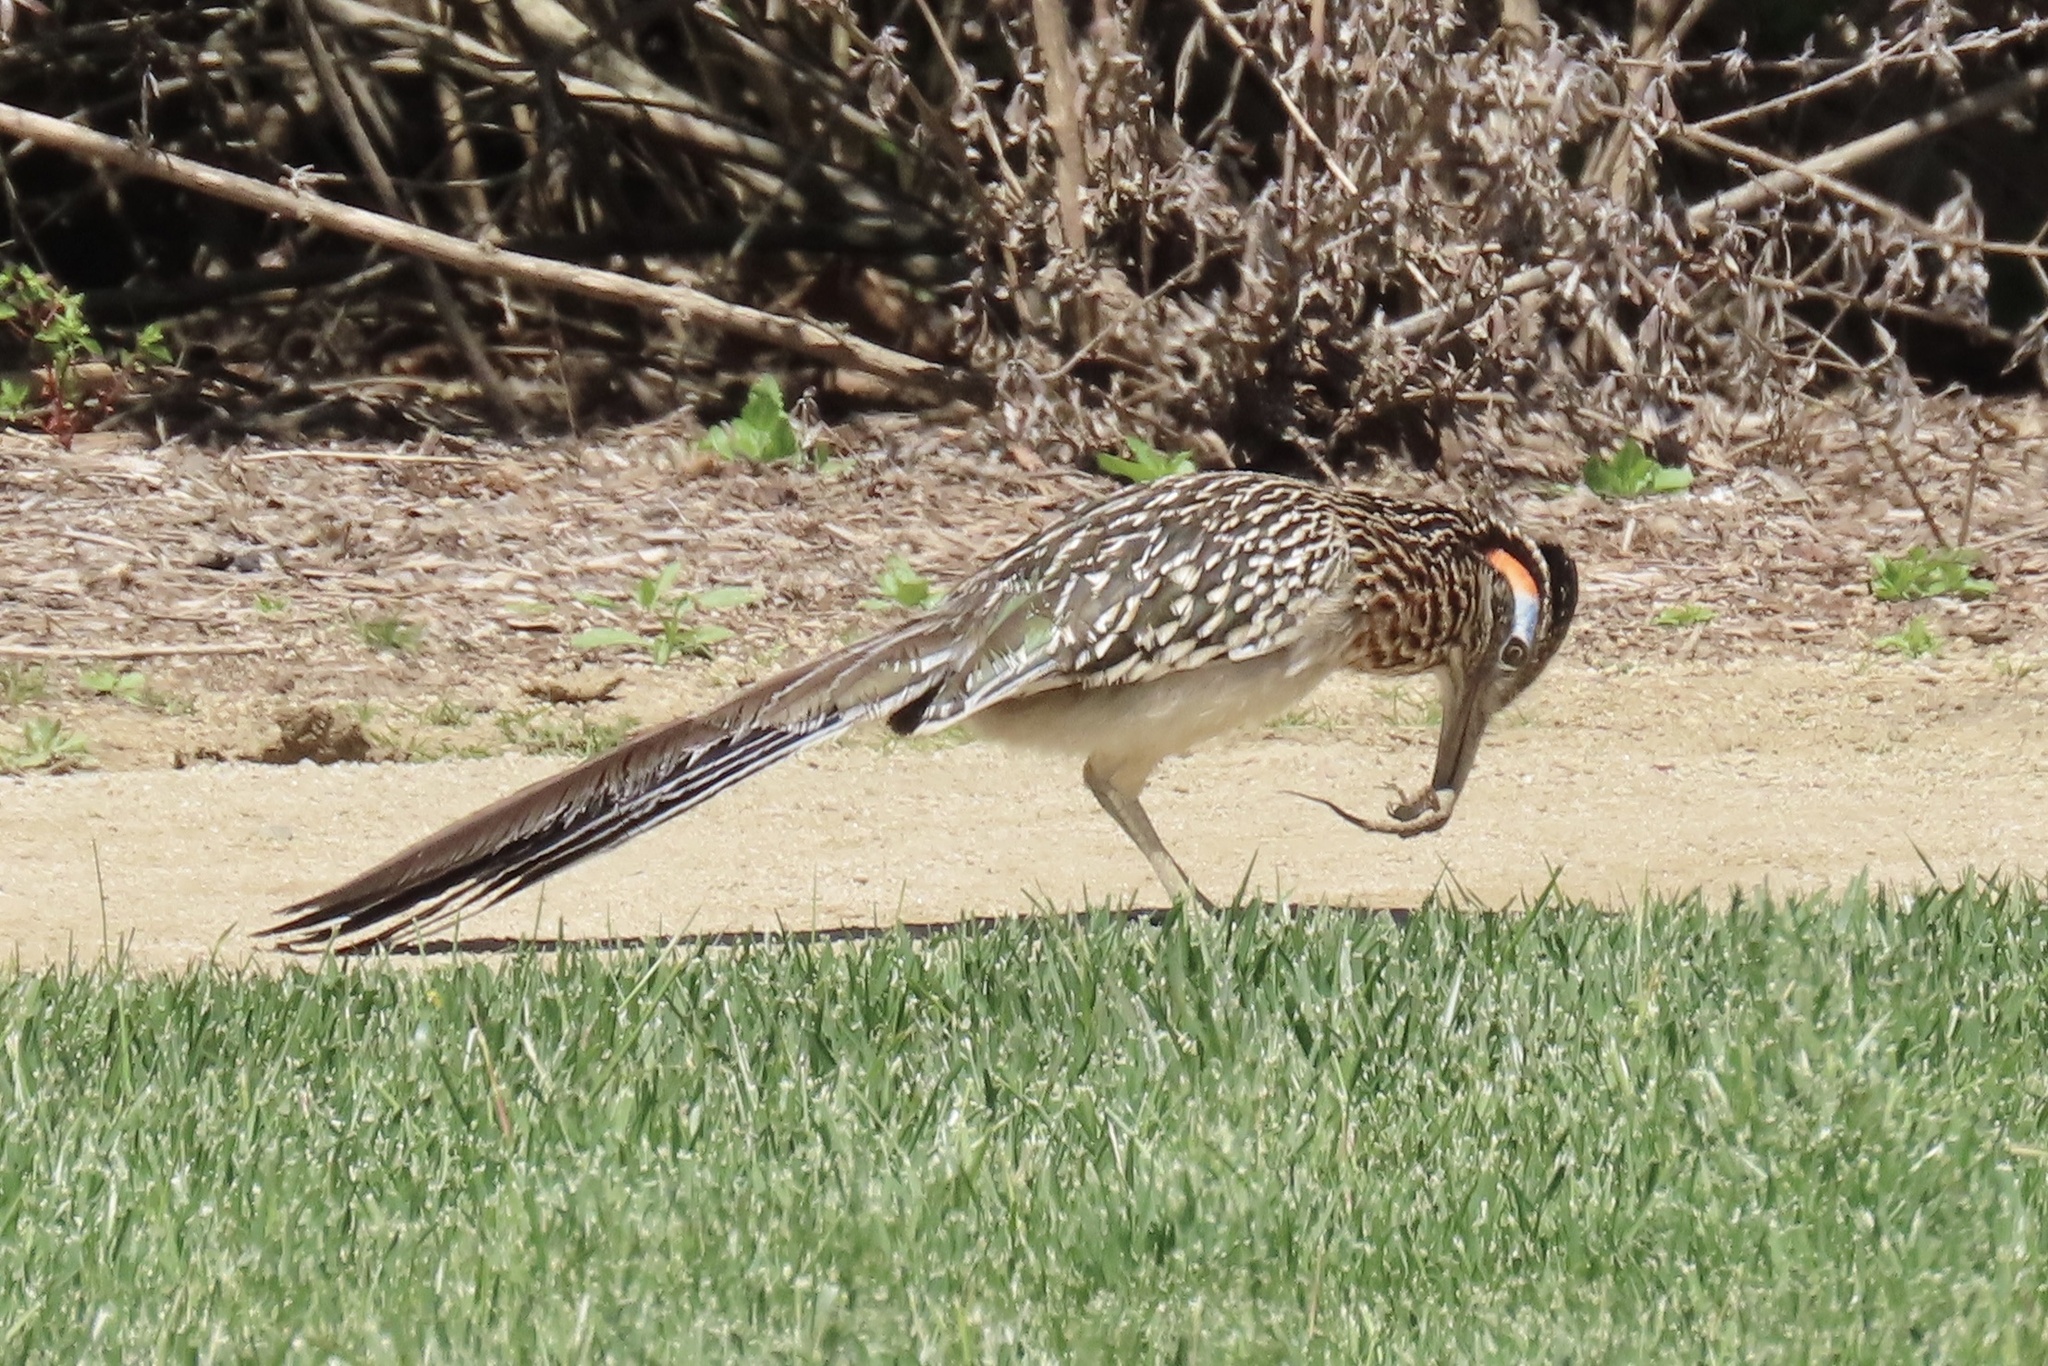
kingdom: Animalia
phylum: Chordata
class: Aves
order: Cuculiformes
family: Cuculidae
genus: Geococcyx
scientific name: Geococcyx californianus
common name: Greater roadrunner
